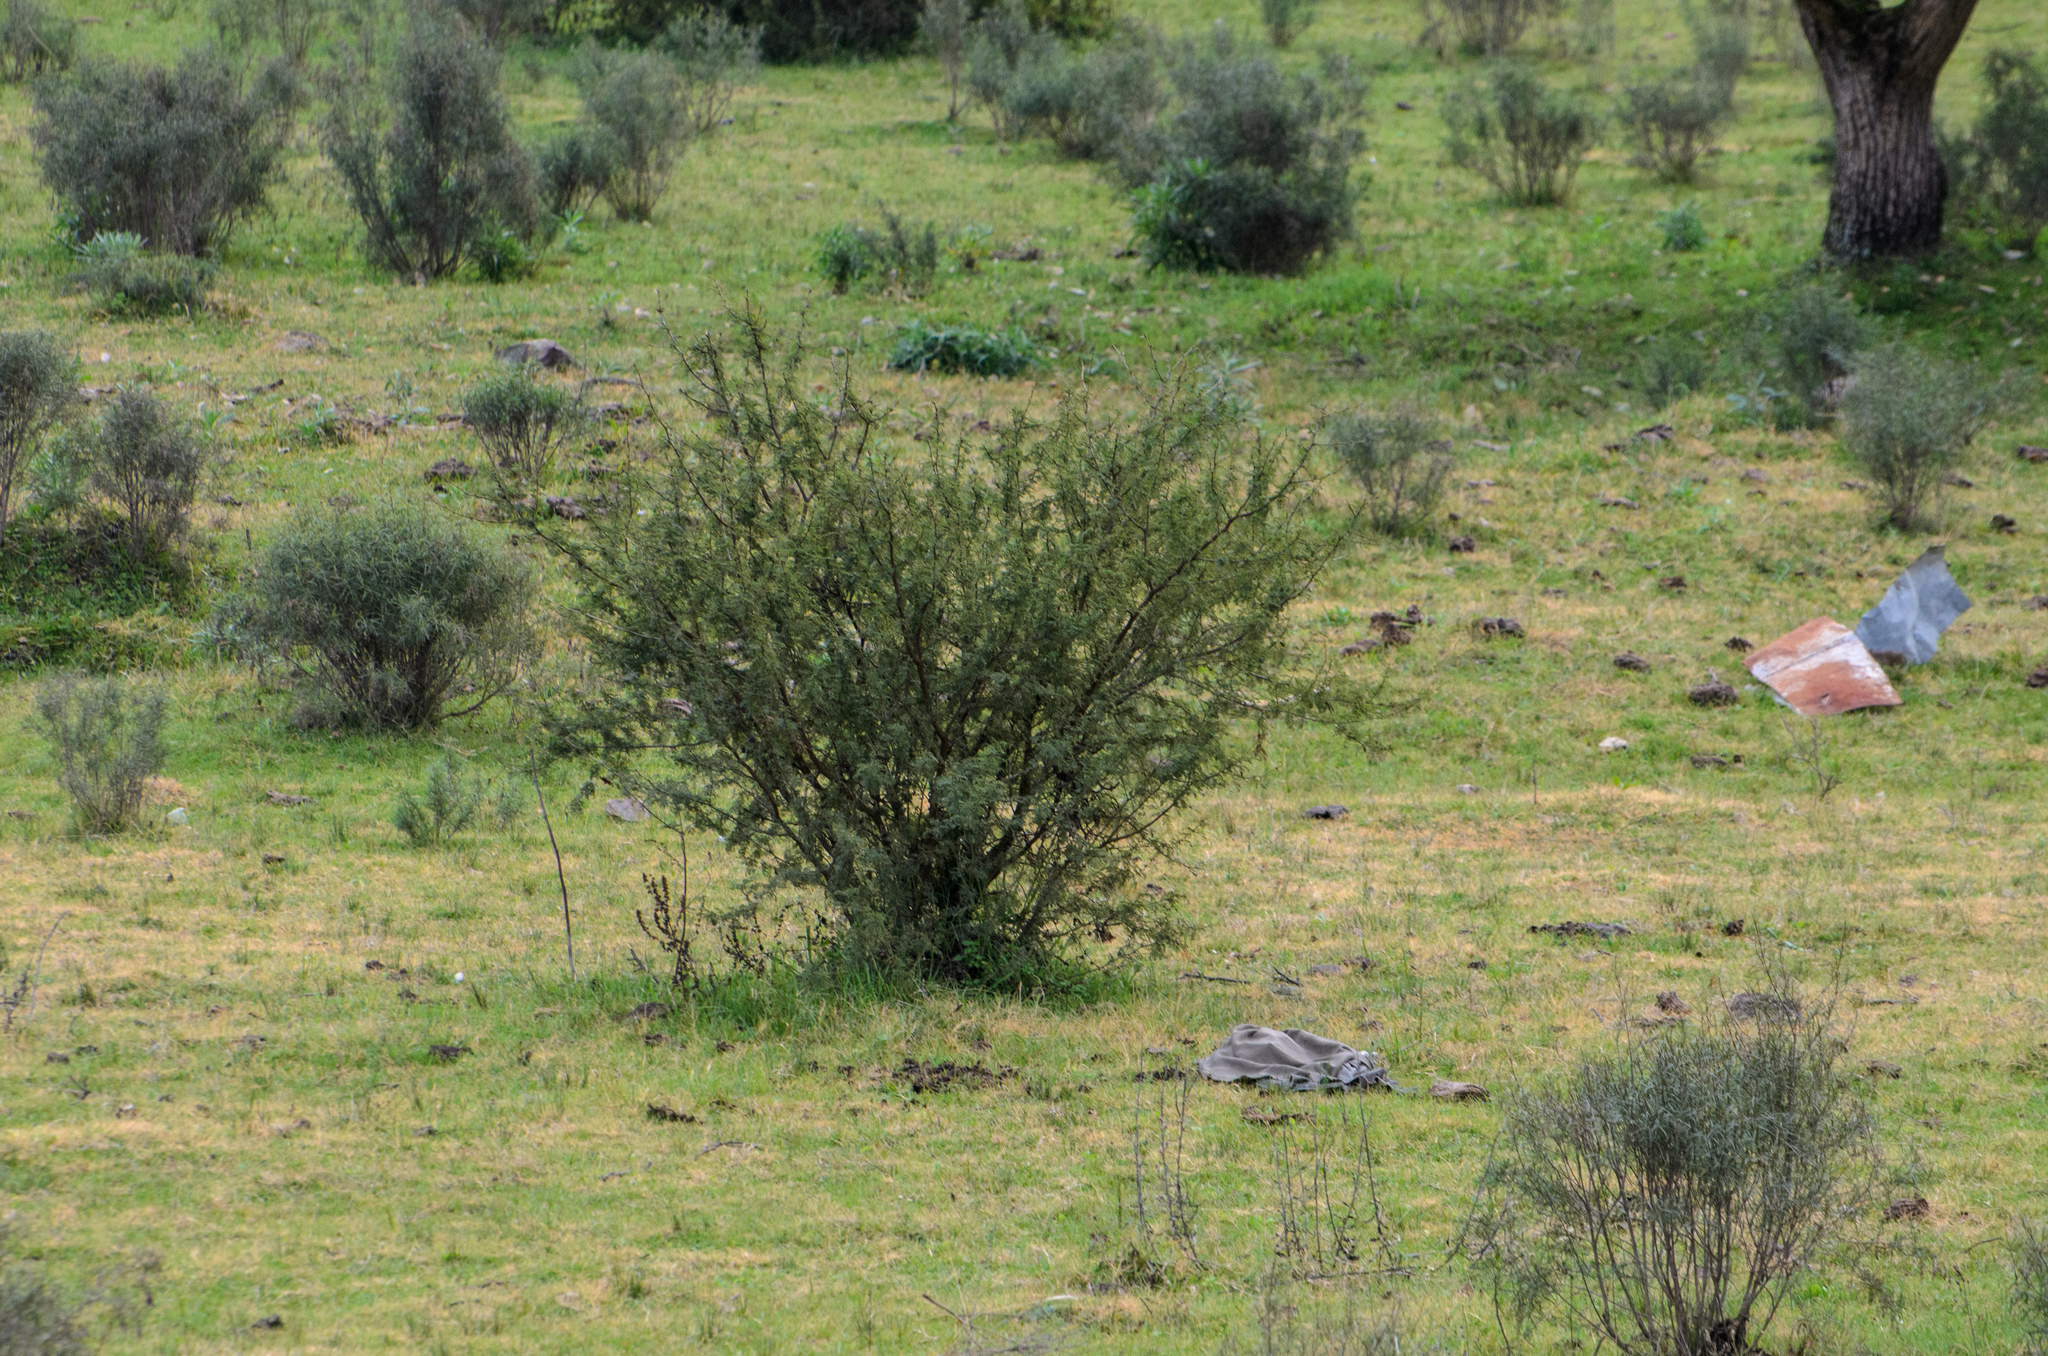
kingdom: Plantae
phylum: Tracheophyta
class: Magnoliopsida
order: Fabales
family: Fabaceae
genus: Vachellia
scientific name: Vachellia caven
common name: Roman cassie
